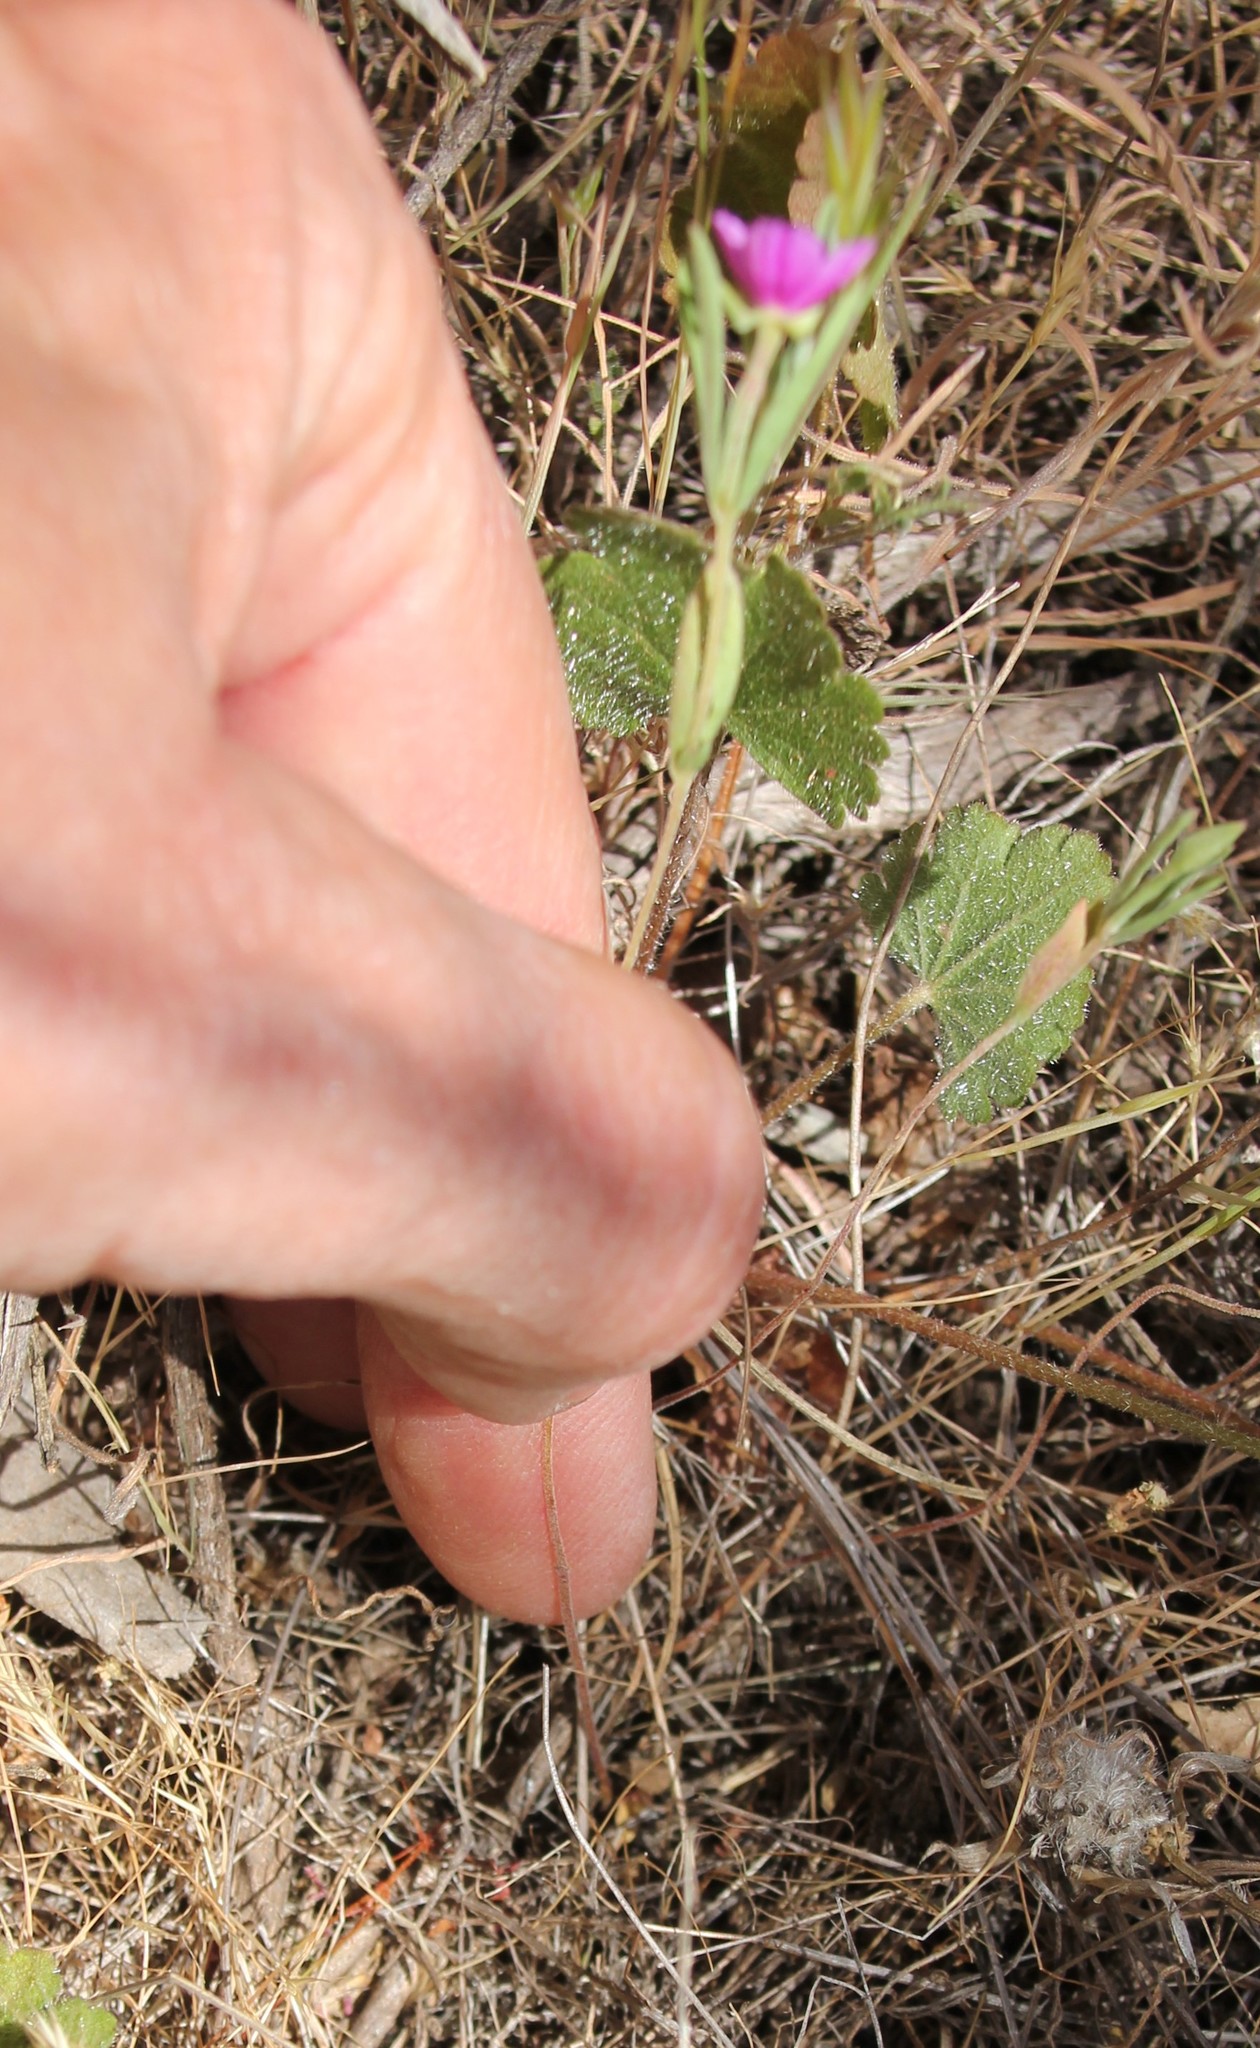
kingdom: Plantae
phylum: Tracheophyta
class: Magnoliopsida
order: Myrtales
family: Onagraceae
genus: Clarkia
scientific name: Clarkia purpurea
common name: Purple clarkia
